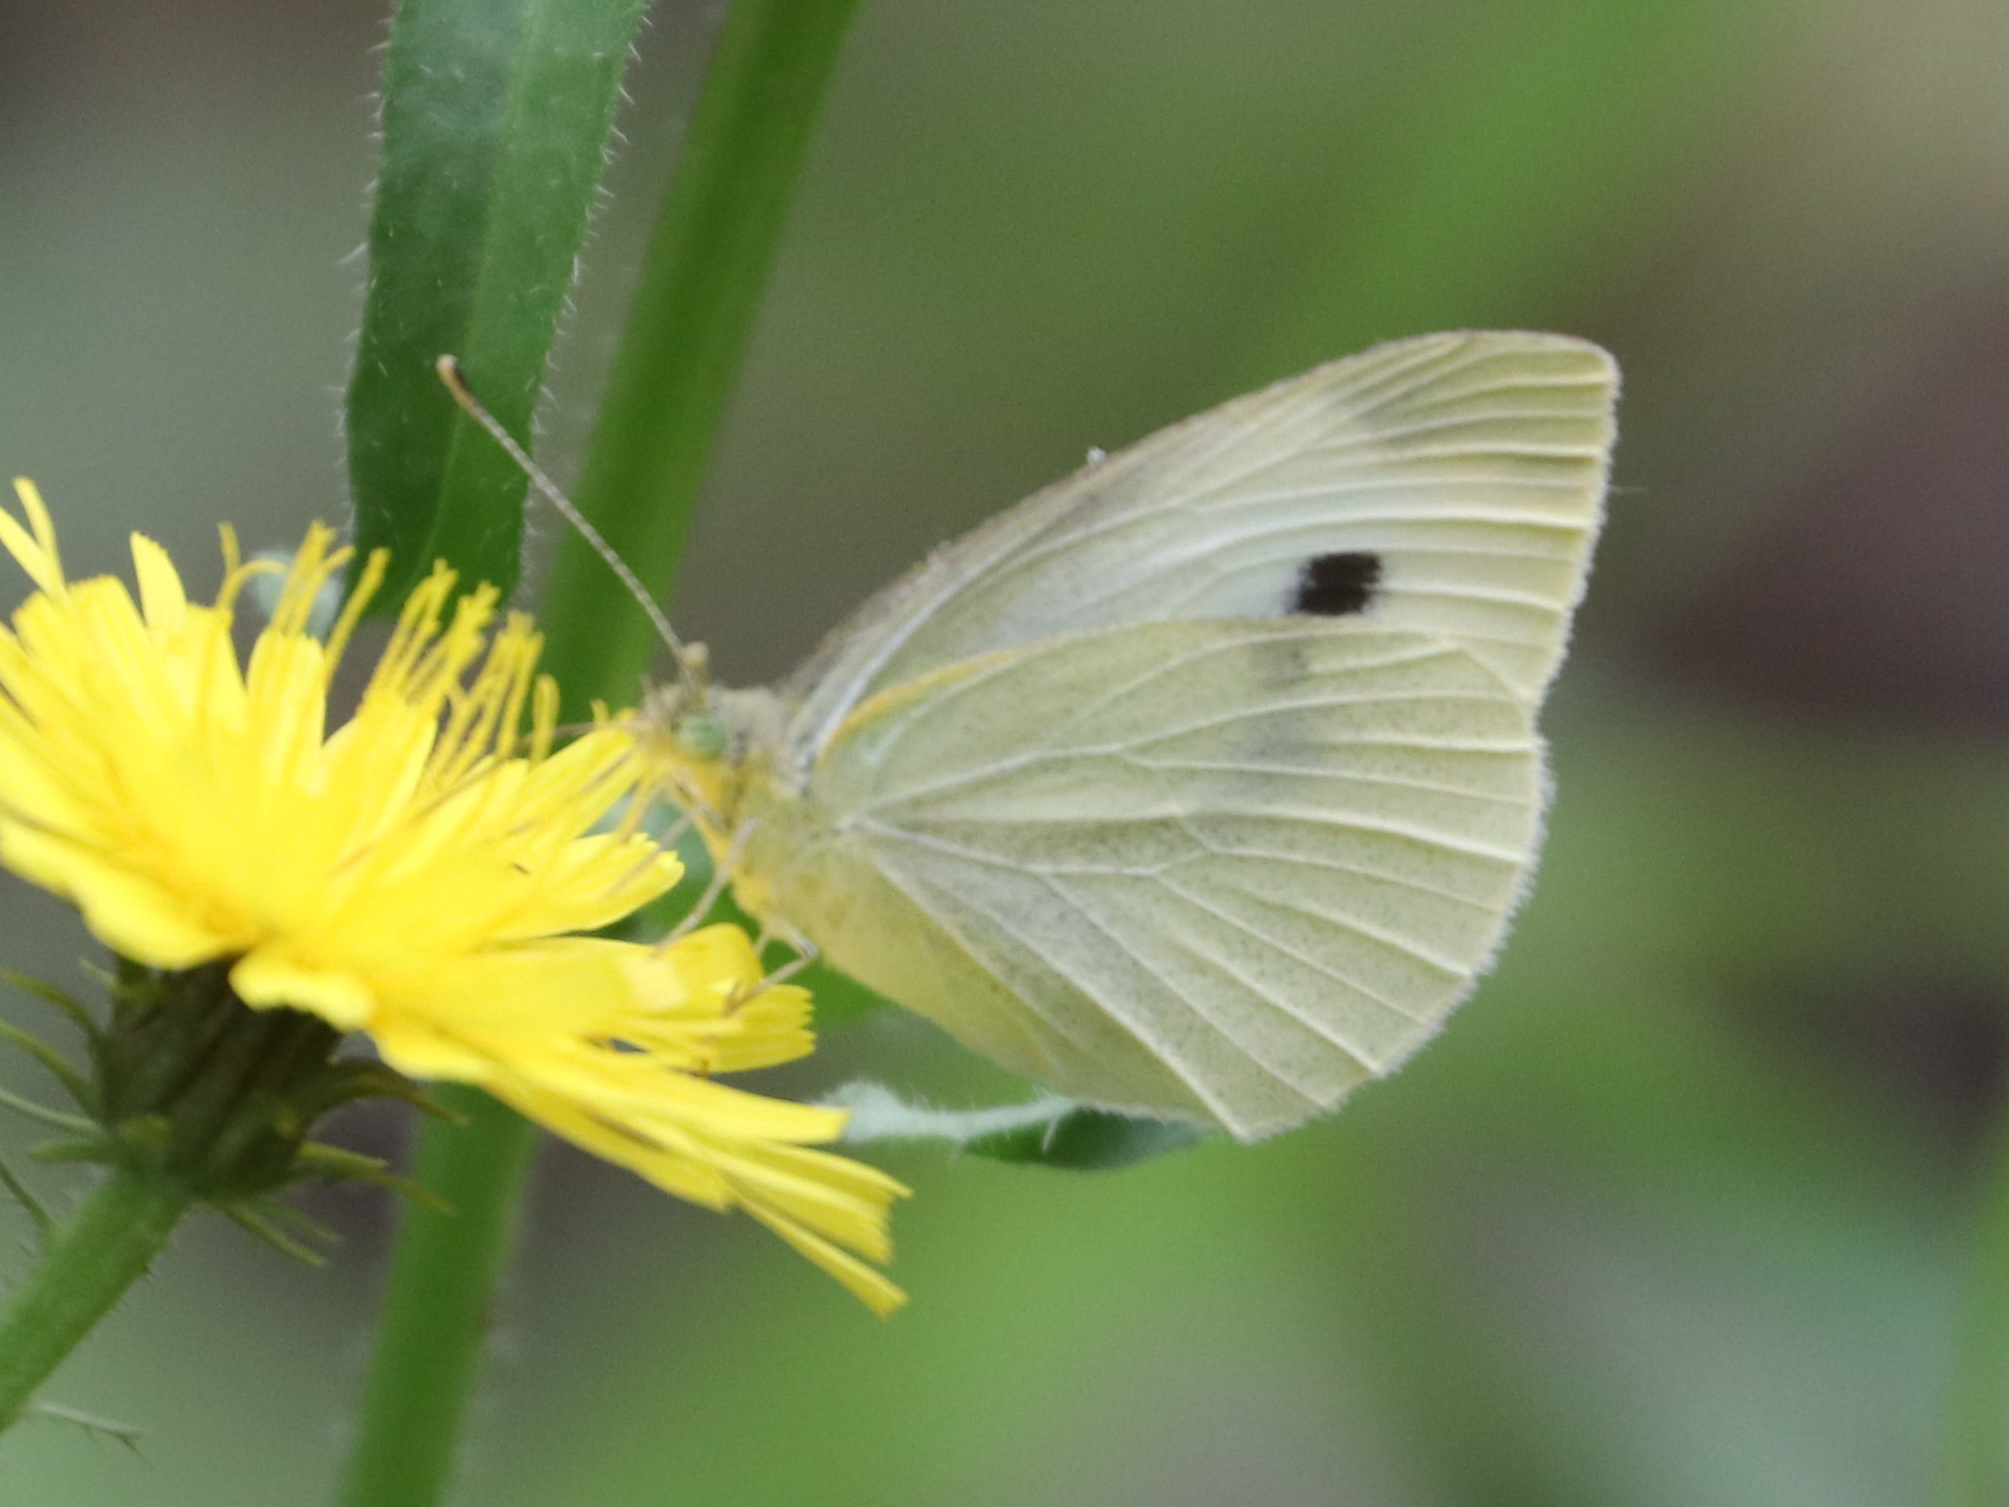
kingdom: Animalia
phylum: Arthropoda
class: Insecta
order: Lepidoptera
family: Pieridae
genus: Pieris
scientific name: Pieris rapae
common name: Small white
